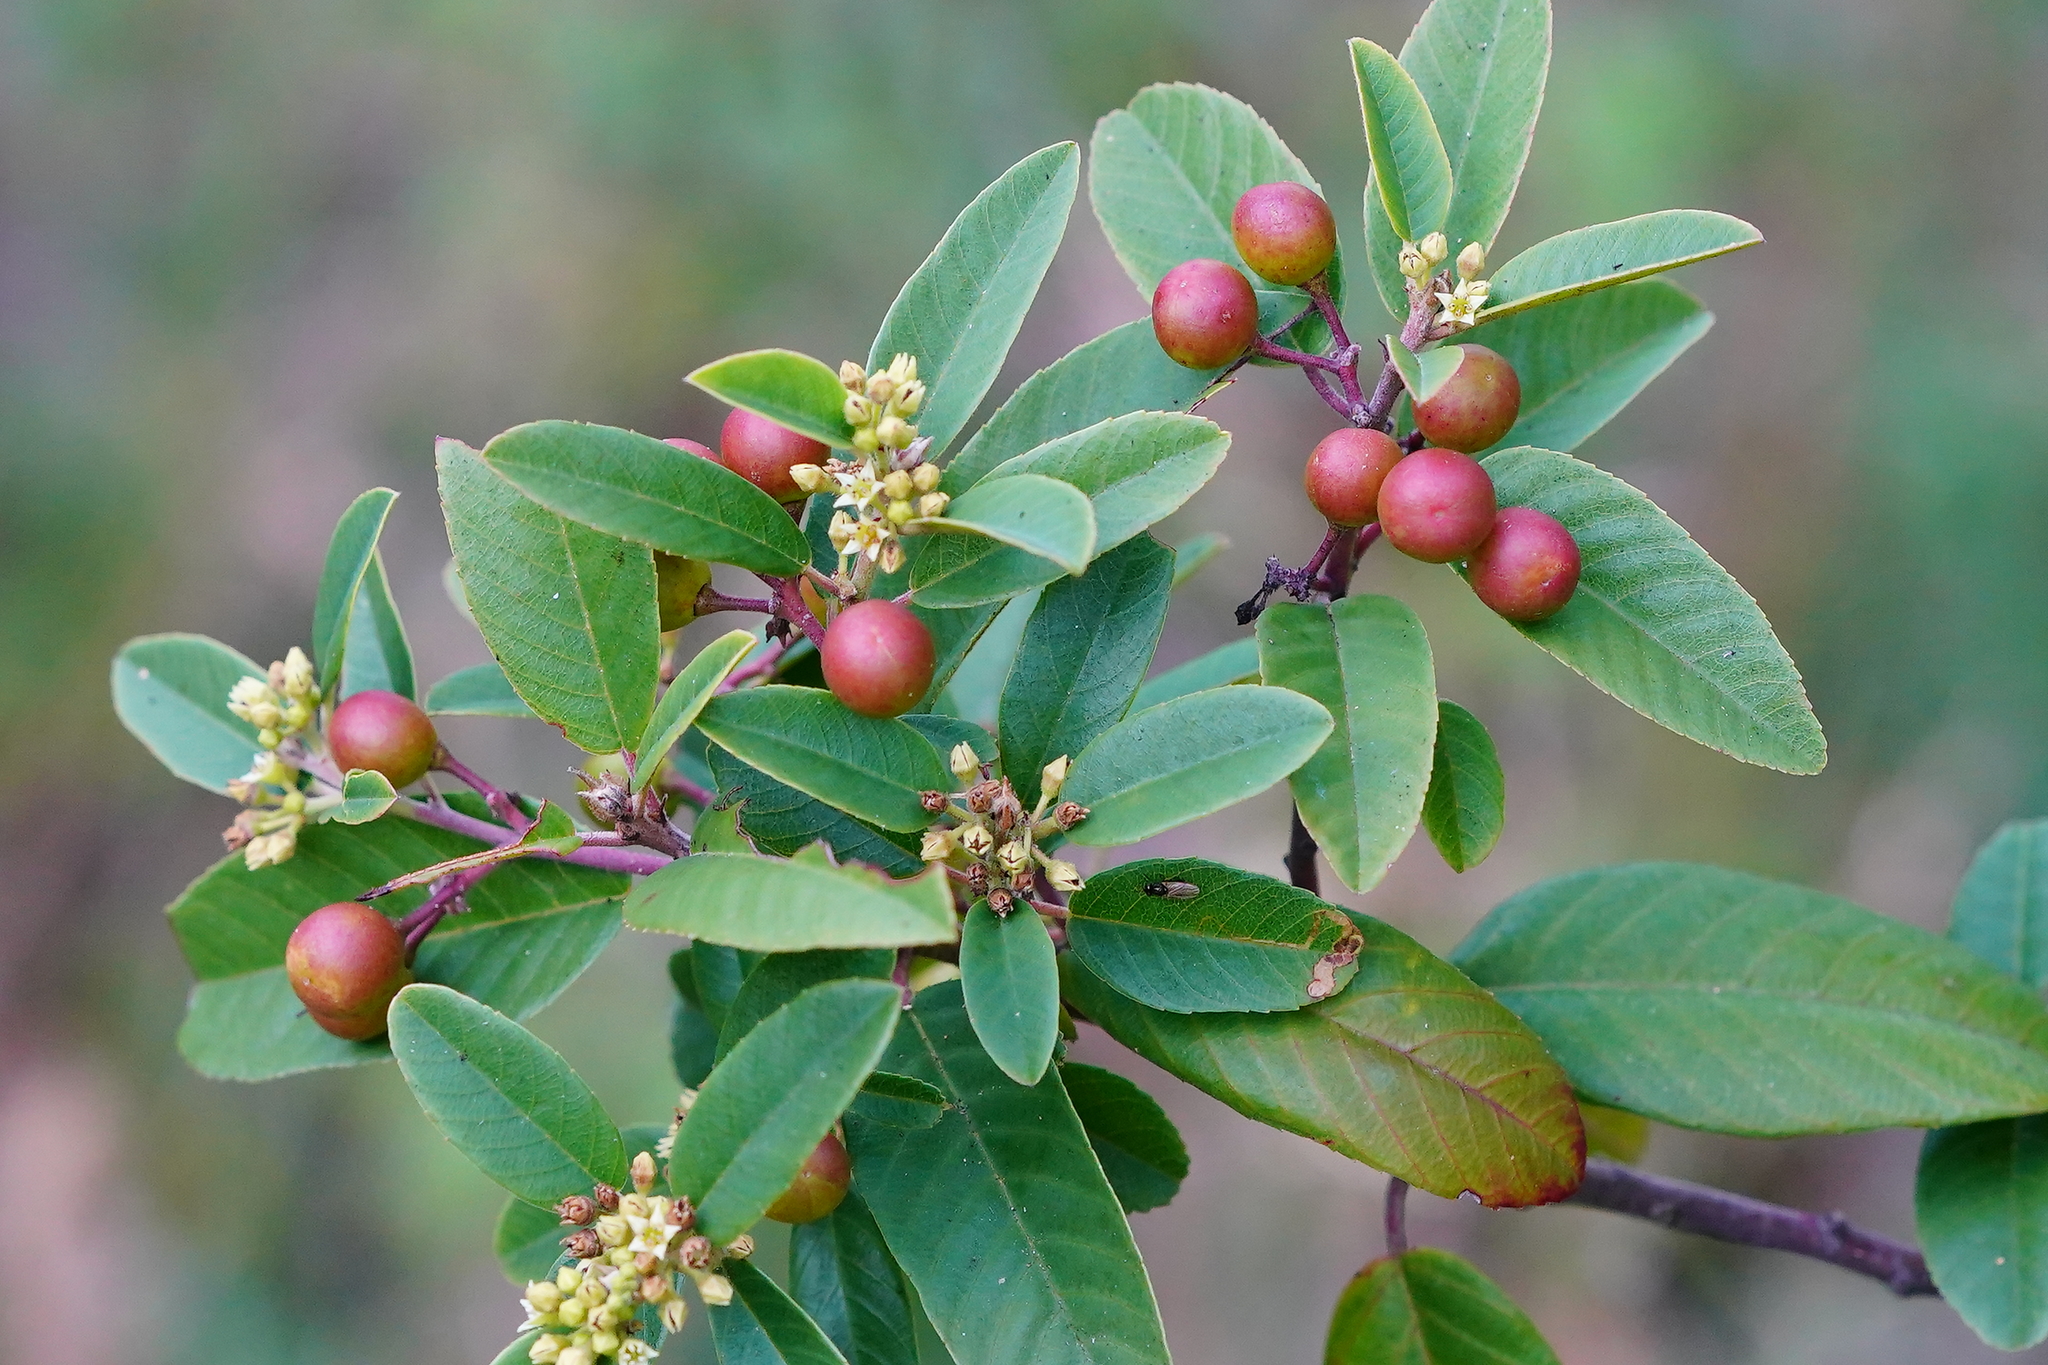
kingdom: Plantae
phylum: Tracheophyta
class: Magnoliopsida
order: Rosales
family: Rhamnaceae
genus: Frangula
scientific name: Frangula californica
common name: California buckthorn
